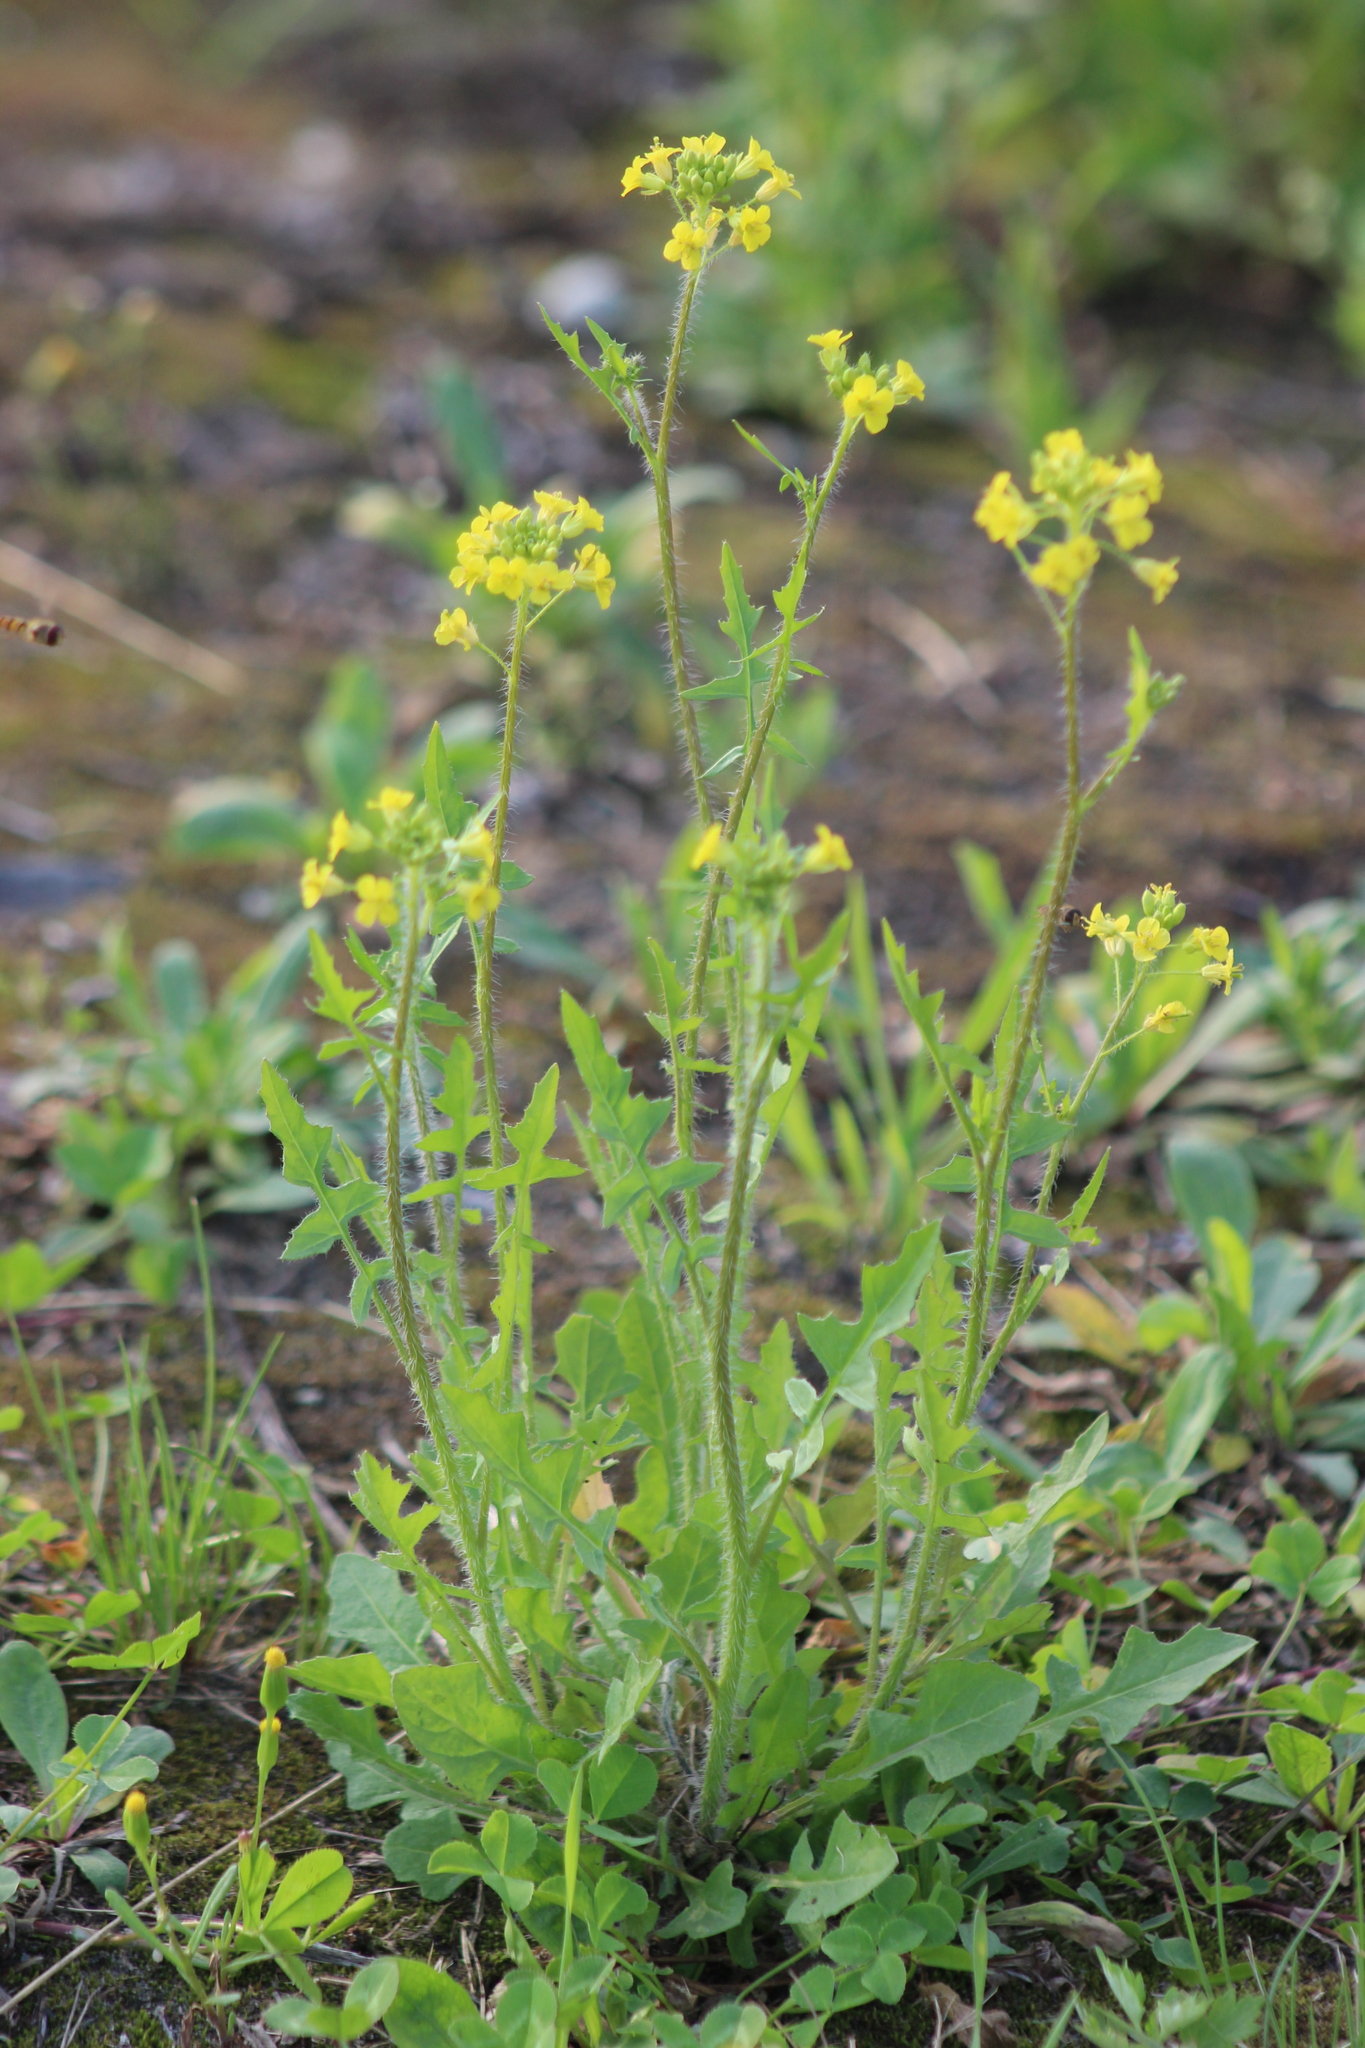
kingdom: Plantae
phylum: Tracheophyta
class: Magnoliopsida
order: Brassicales
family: Brassicaceae
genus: Sisymbrium
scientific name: Sisymbrium loeselii
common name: False london-rocket
